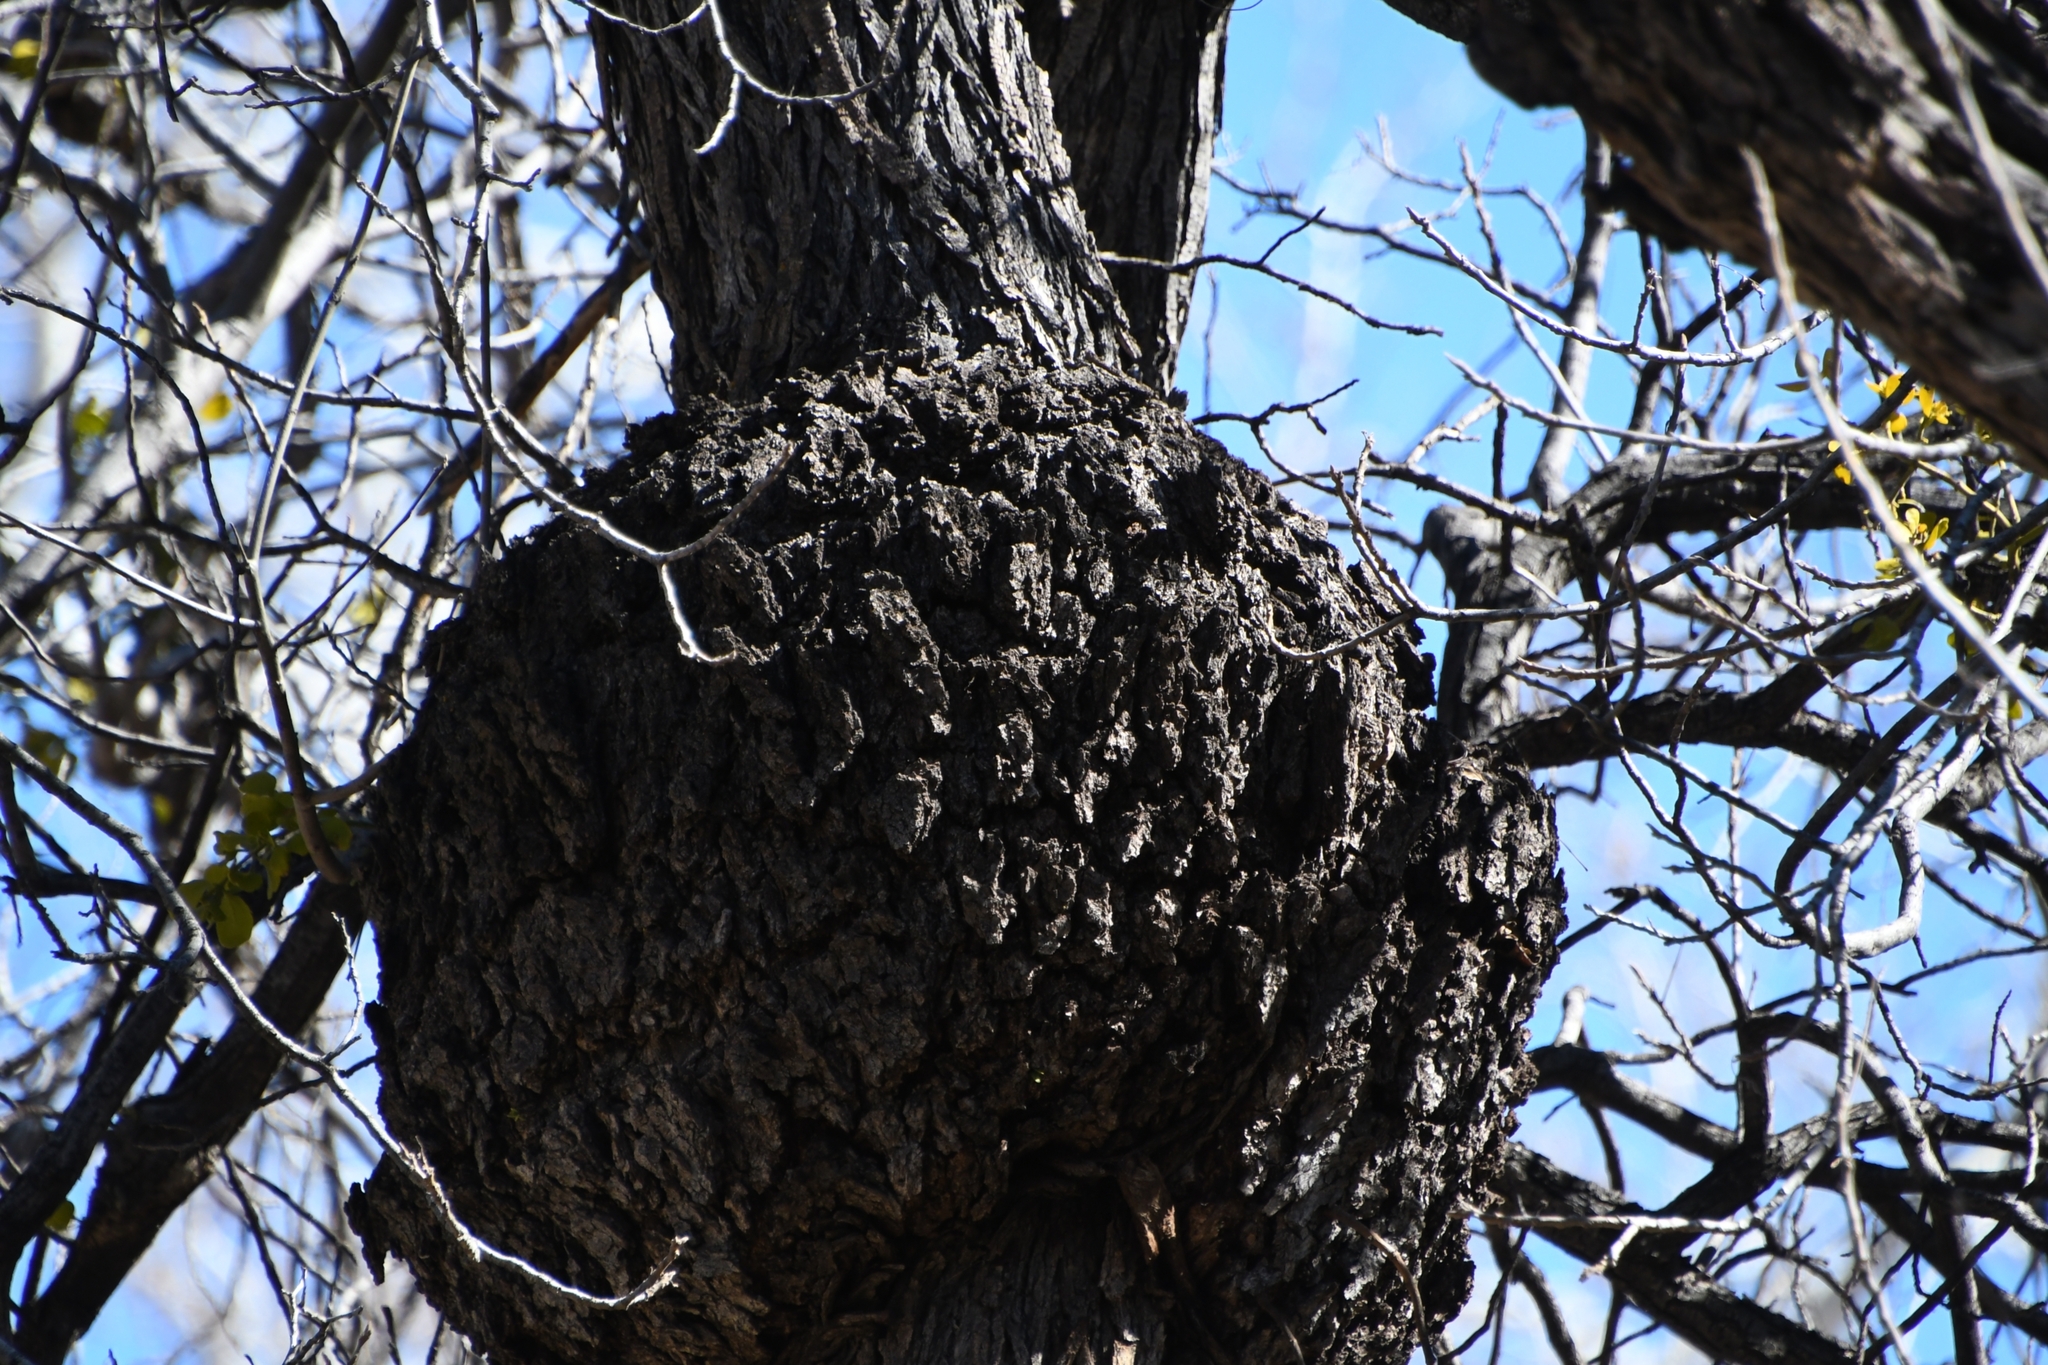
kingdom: Bacteria
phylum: Proteobacteria
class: Alphaproteobacteria
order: Rhizobiales
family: Rhizobiaceae
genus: Rhizobium
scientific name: Rhizobium Agrobacterium radiobacter
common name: Bacterial crown gall
